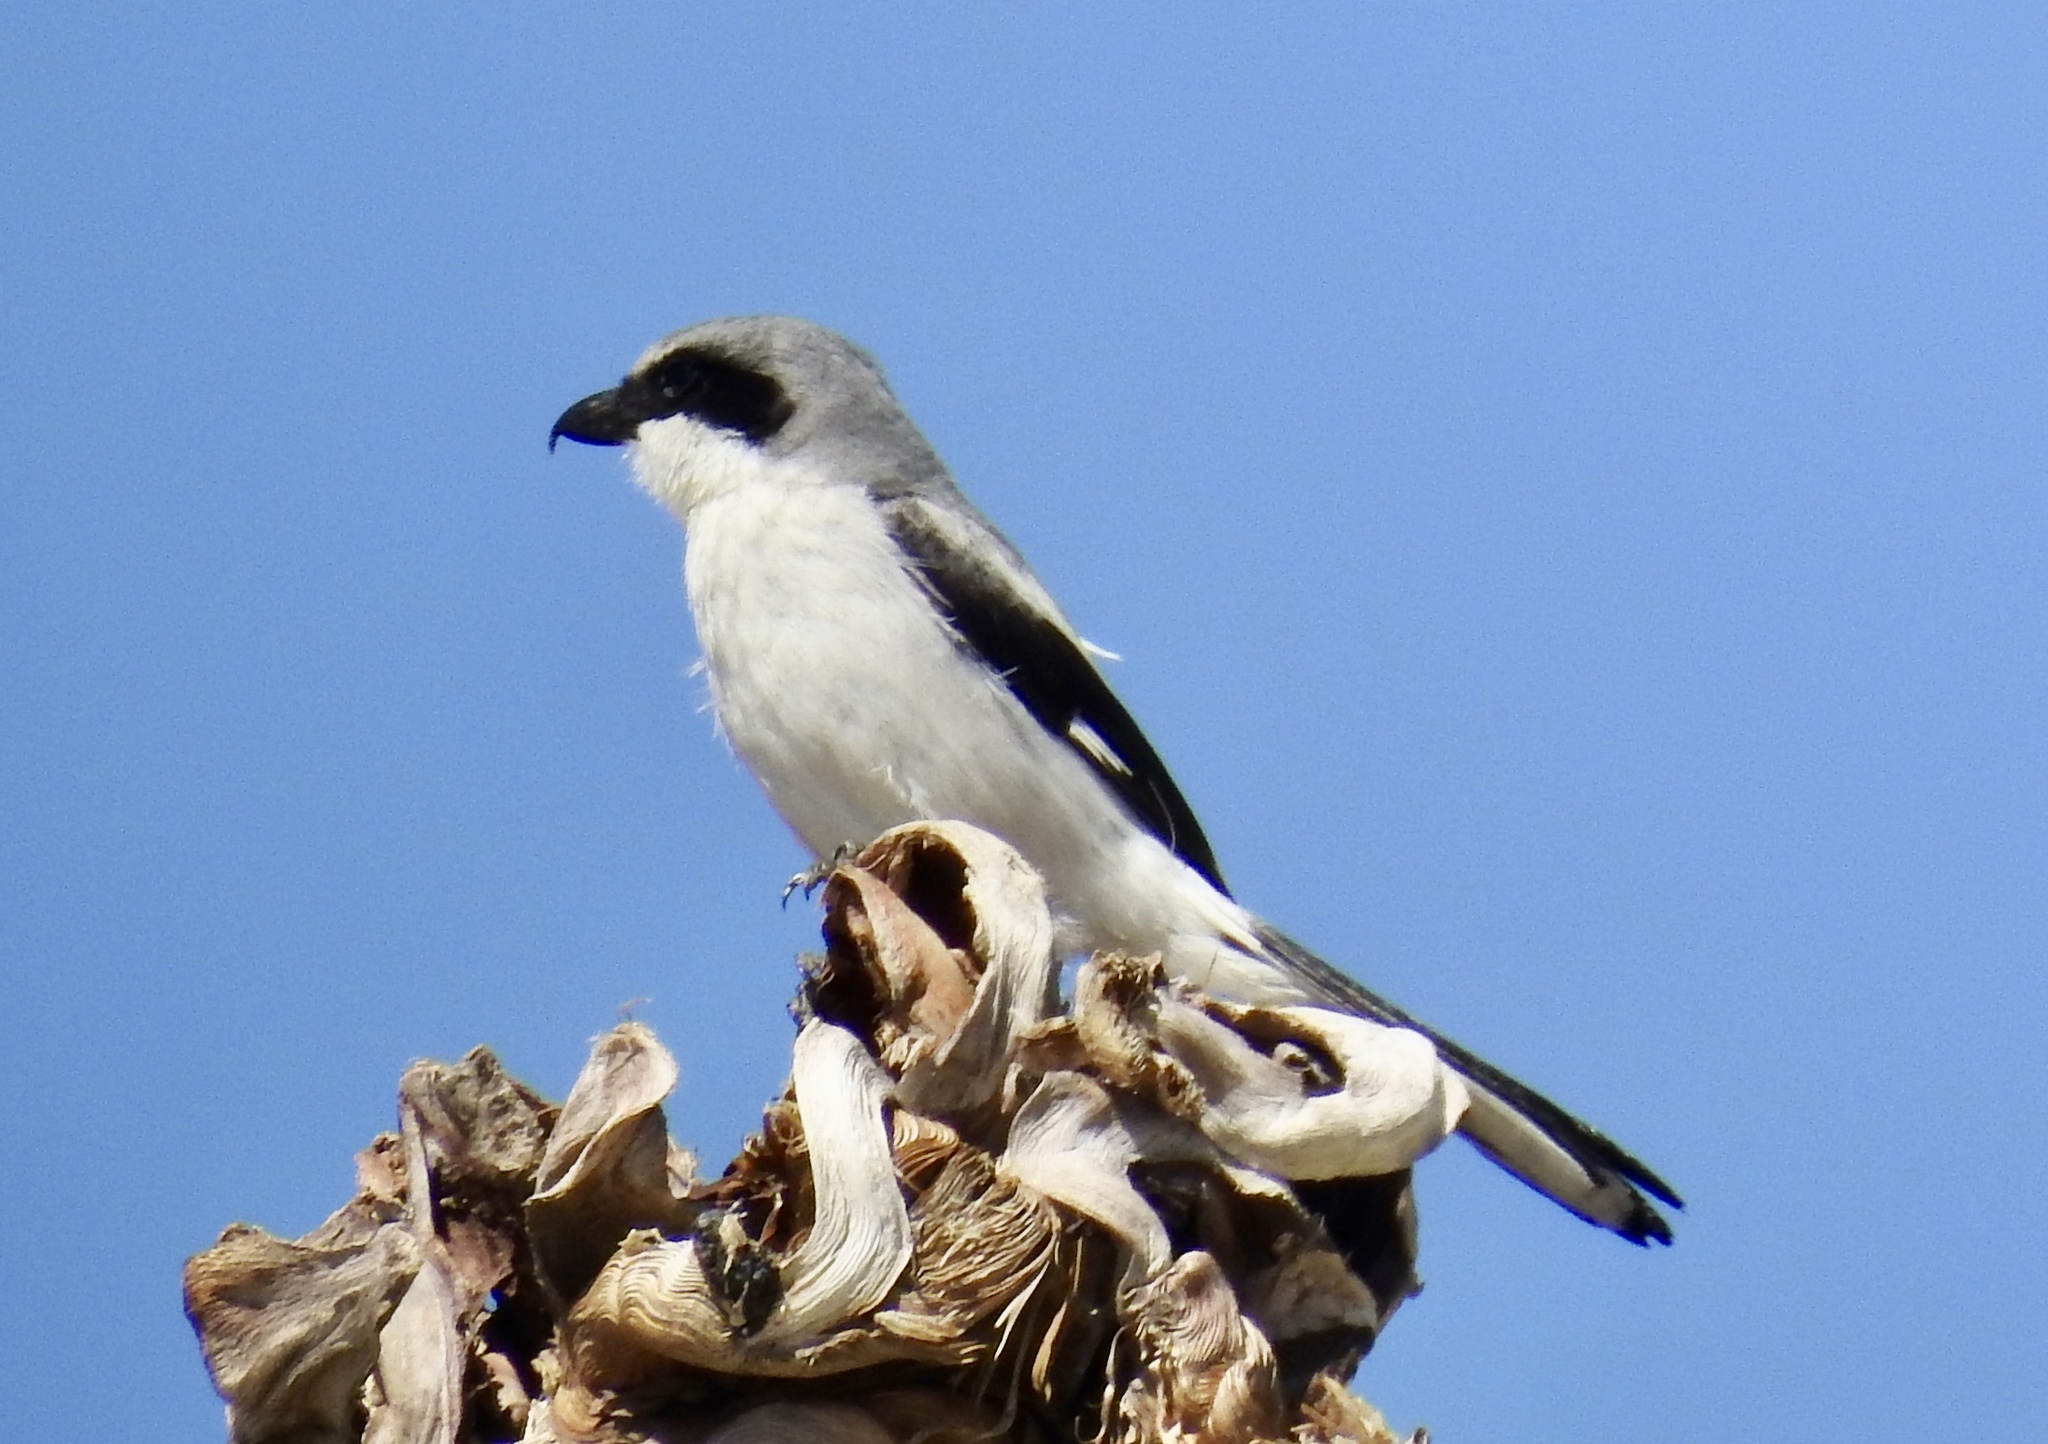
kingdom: Animalia
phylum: Chordata
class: Aves
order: Passeriformes
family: Laniidae
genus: Lanius
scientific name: Lanius ludovicianus
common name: Loggerhead shrike
